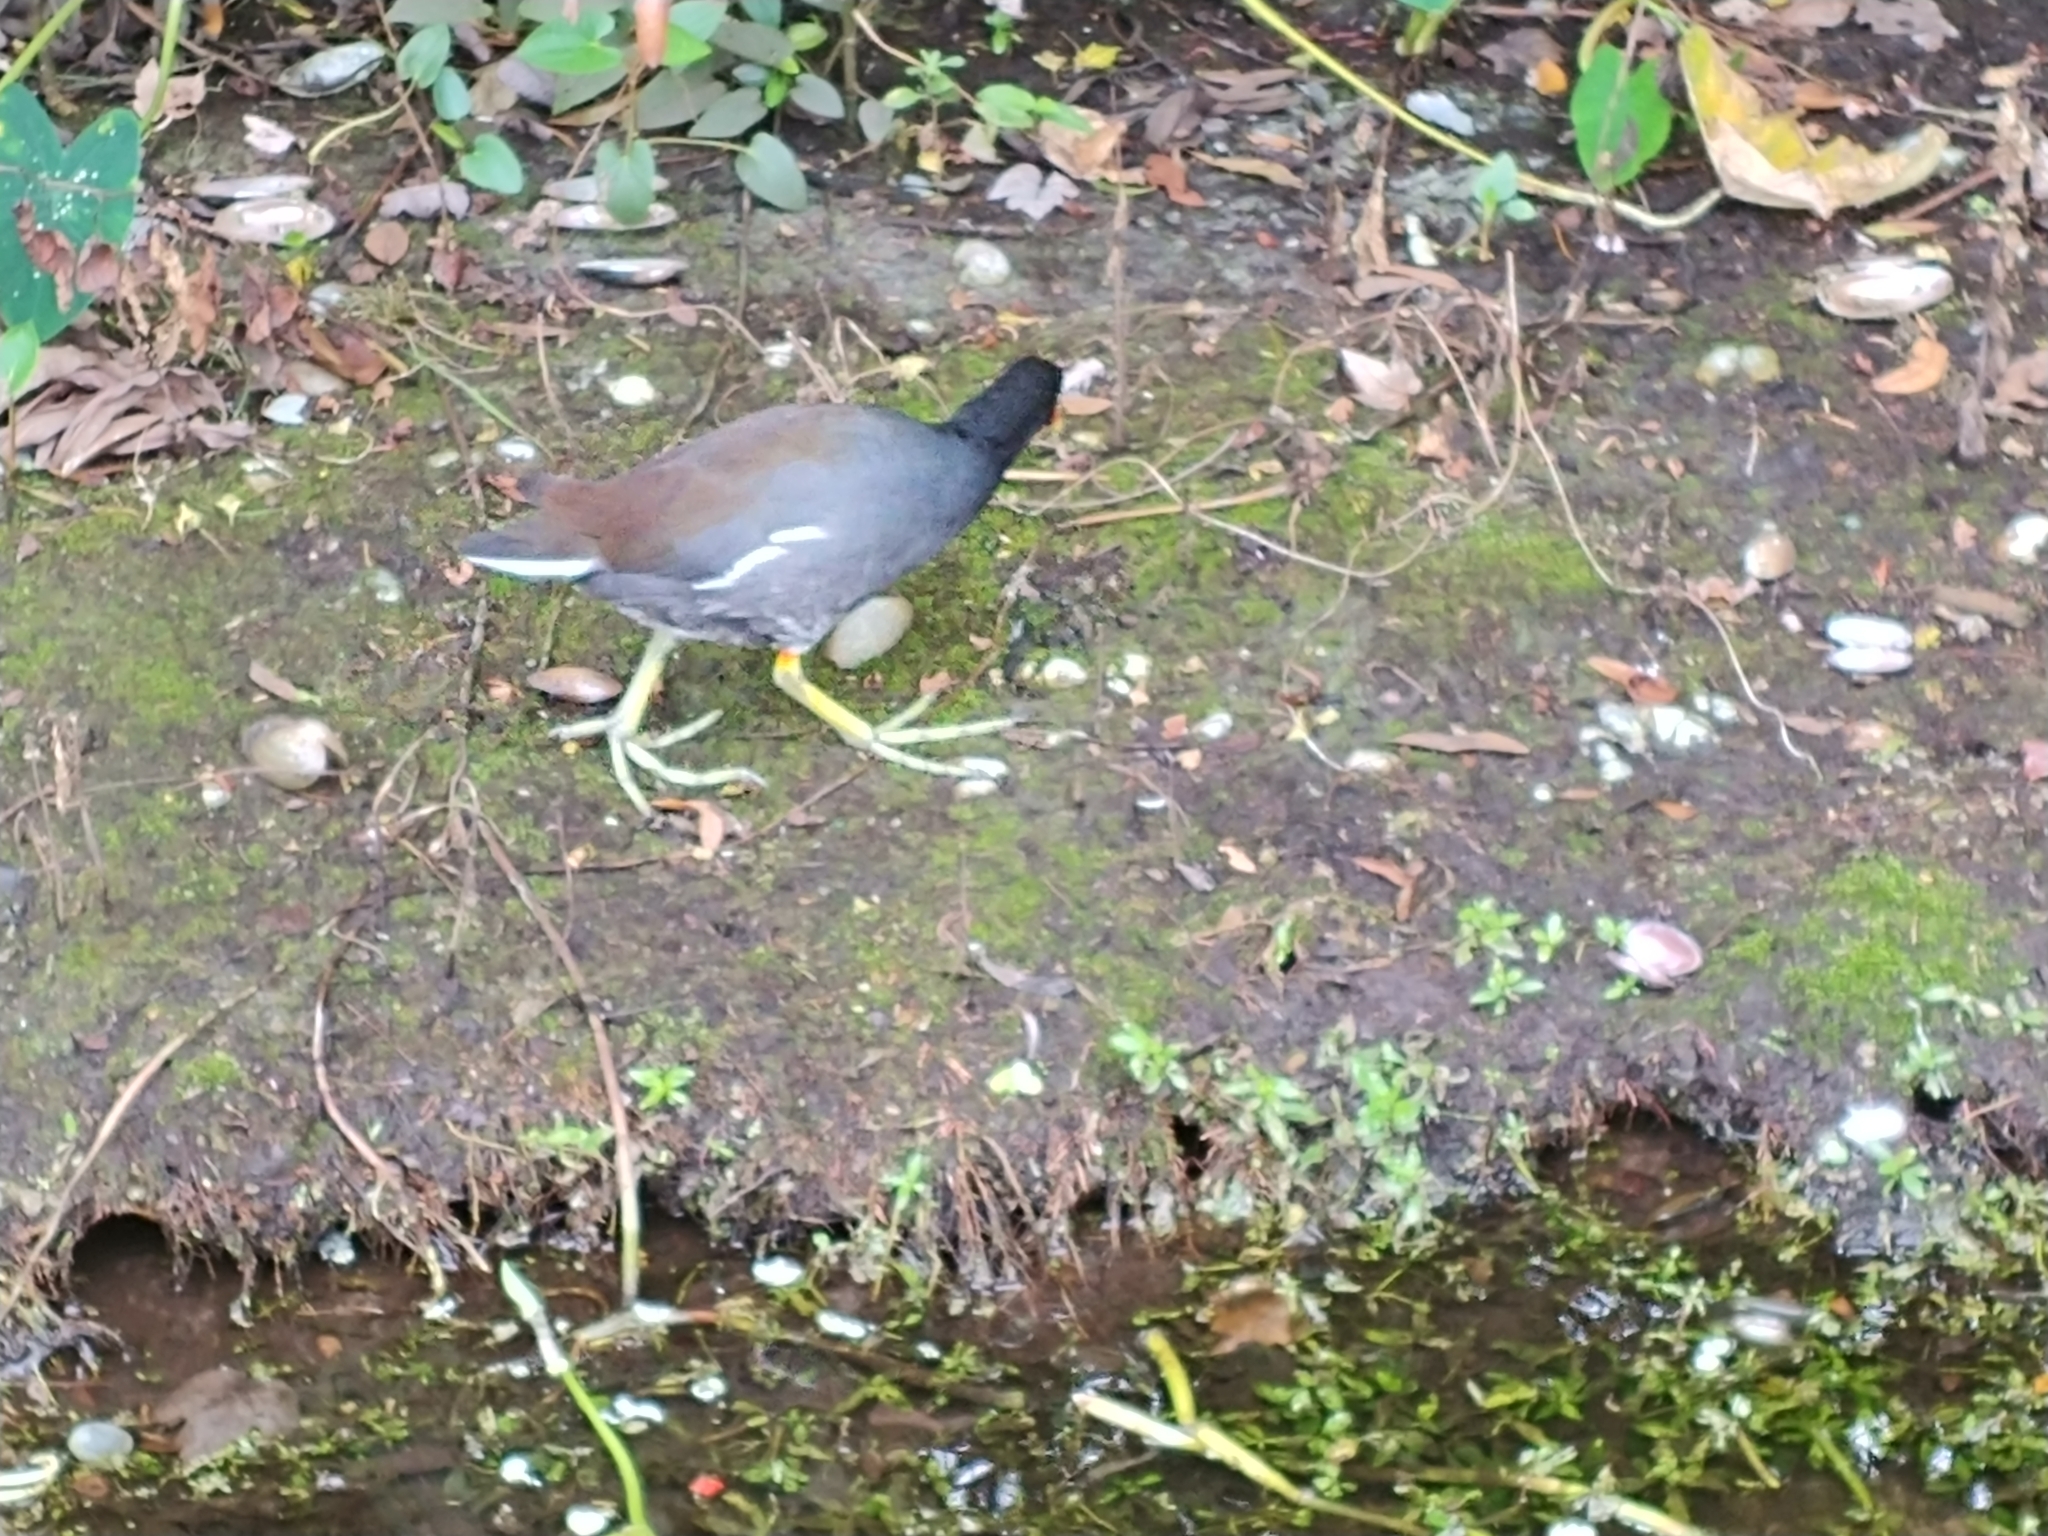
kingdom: Animalia
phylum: Chordata
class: Aves
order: Gruiformes
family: Rallidae
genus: Gallinula
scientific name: Gallinula chloropus
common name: Common moorhen
